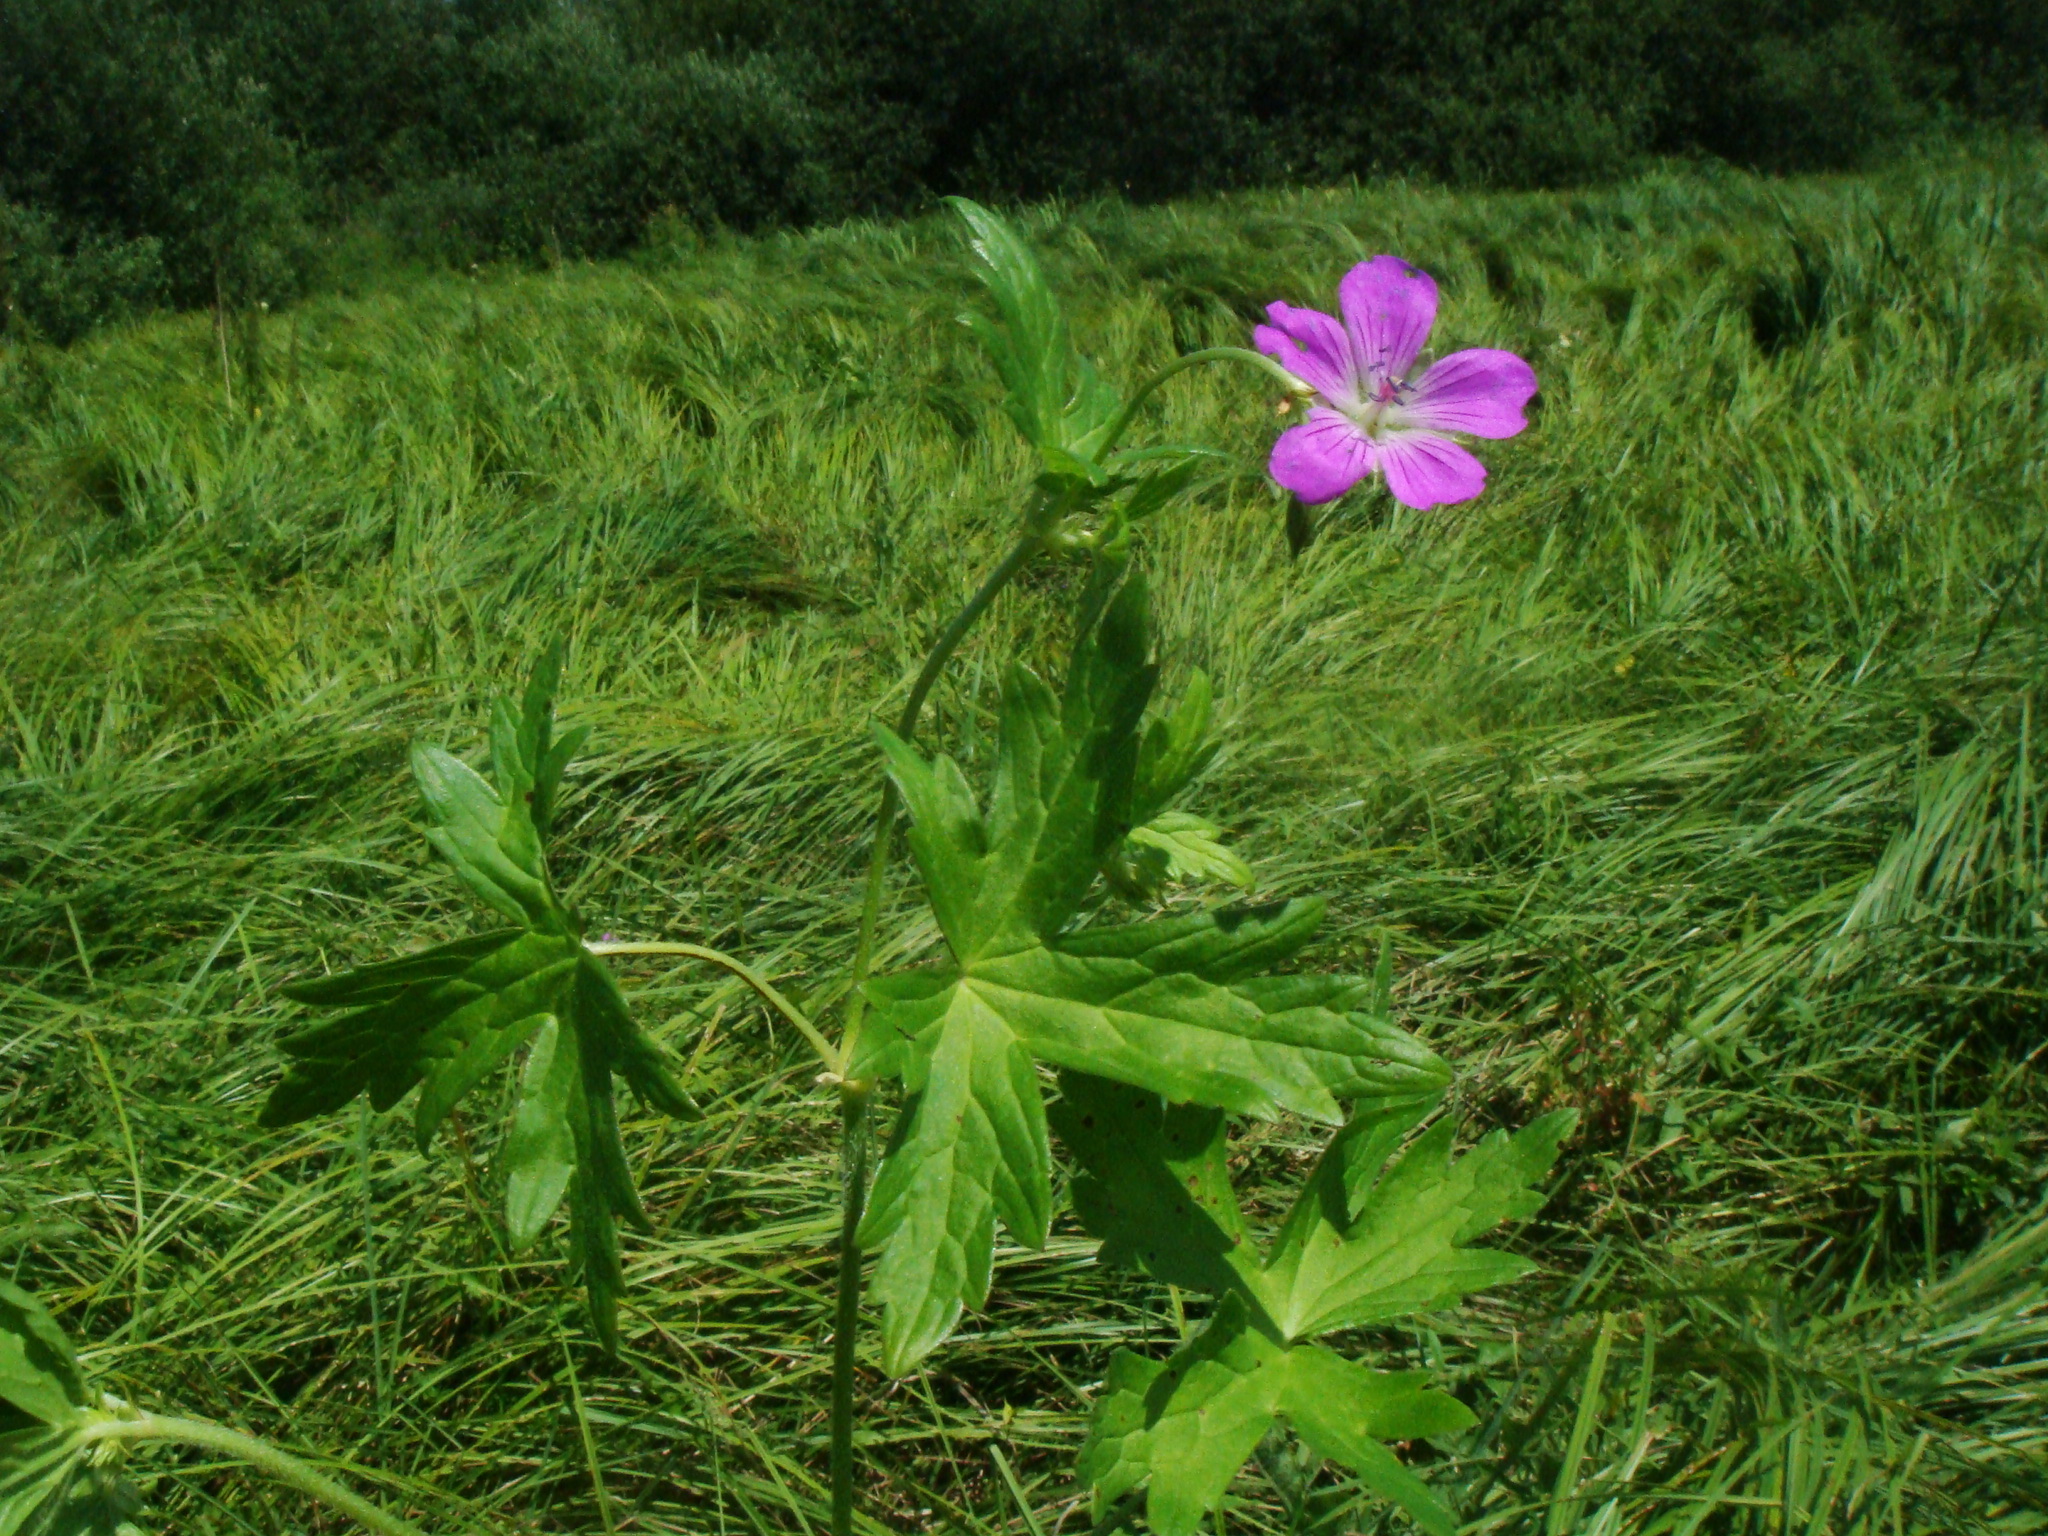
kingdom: Plantae
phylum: Tracheophyta
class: Magnoliopsida
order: Geraniales
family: Geraniaceae
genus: Geranium
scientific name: Geranium palustre
